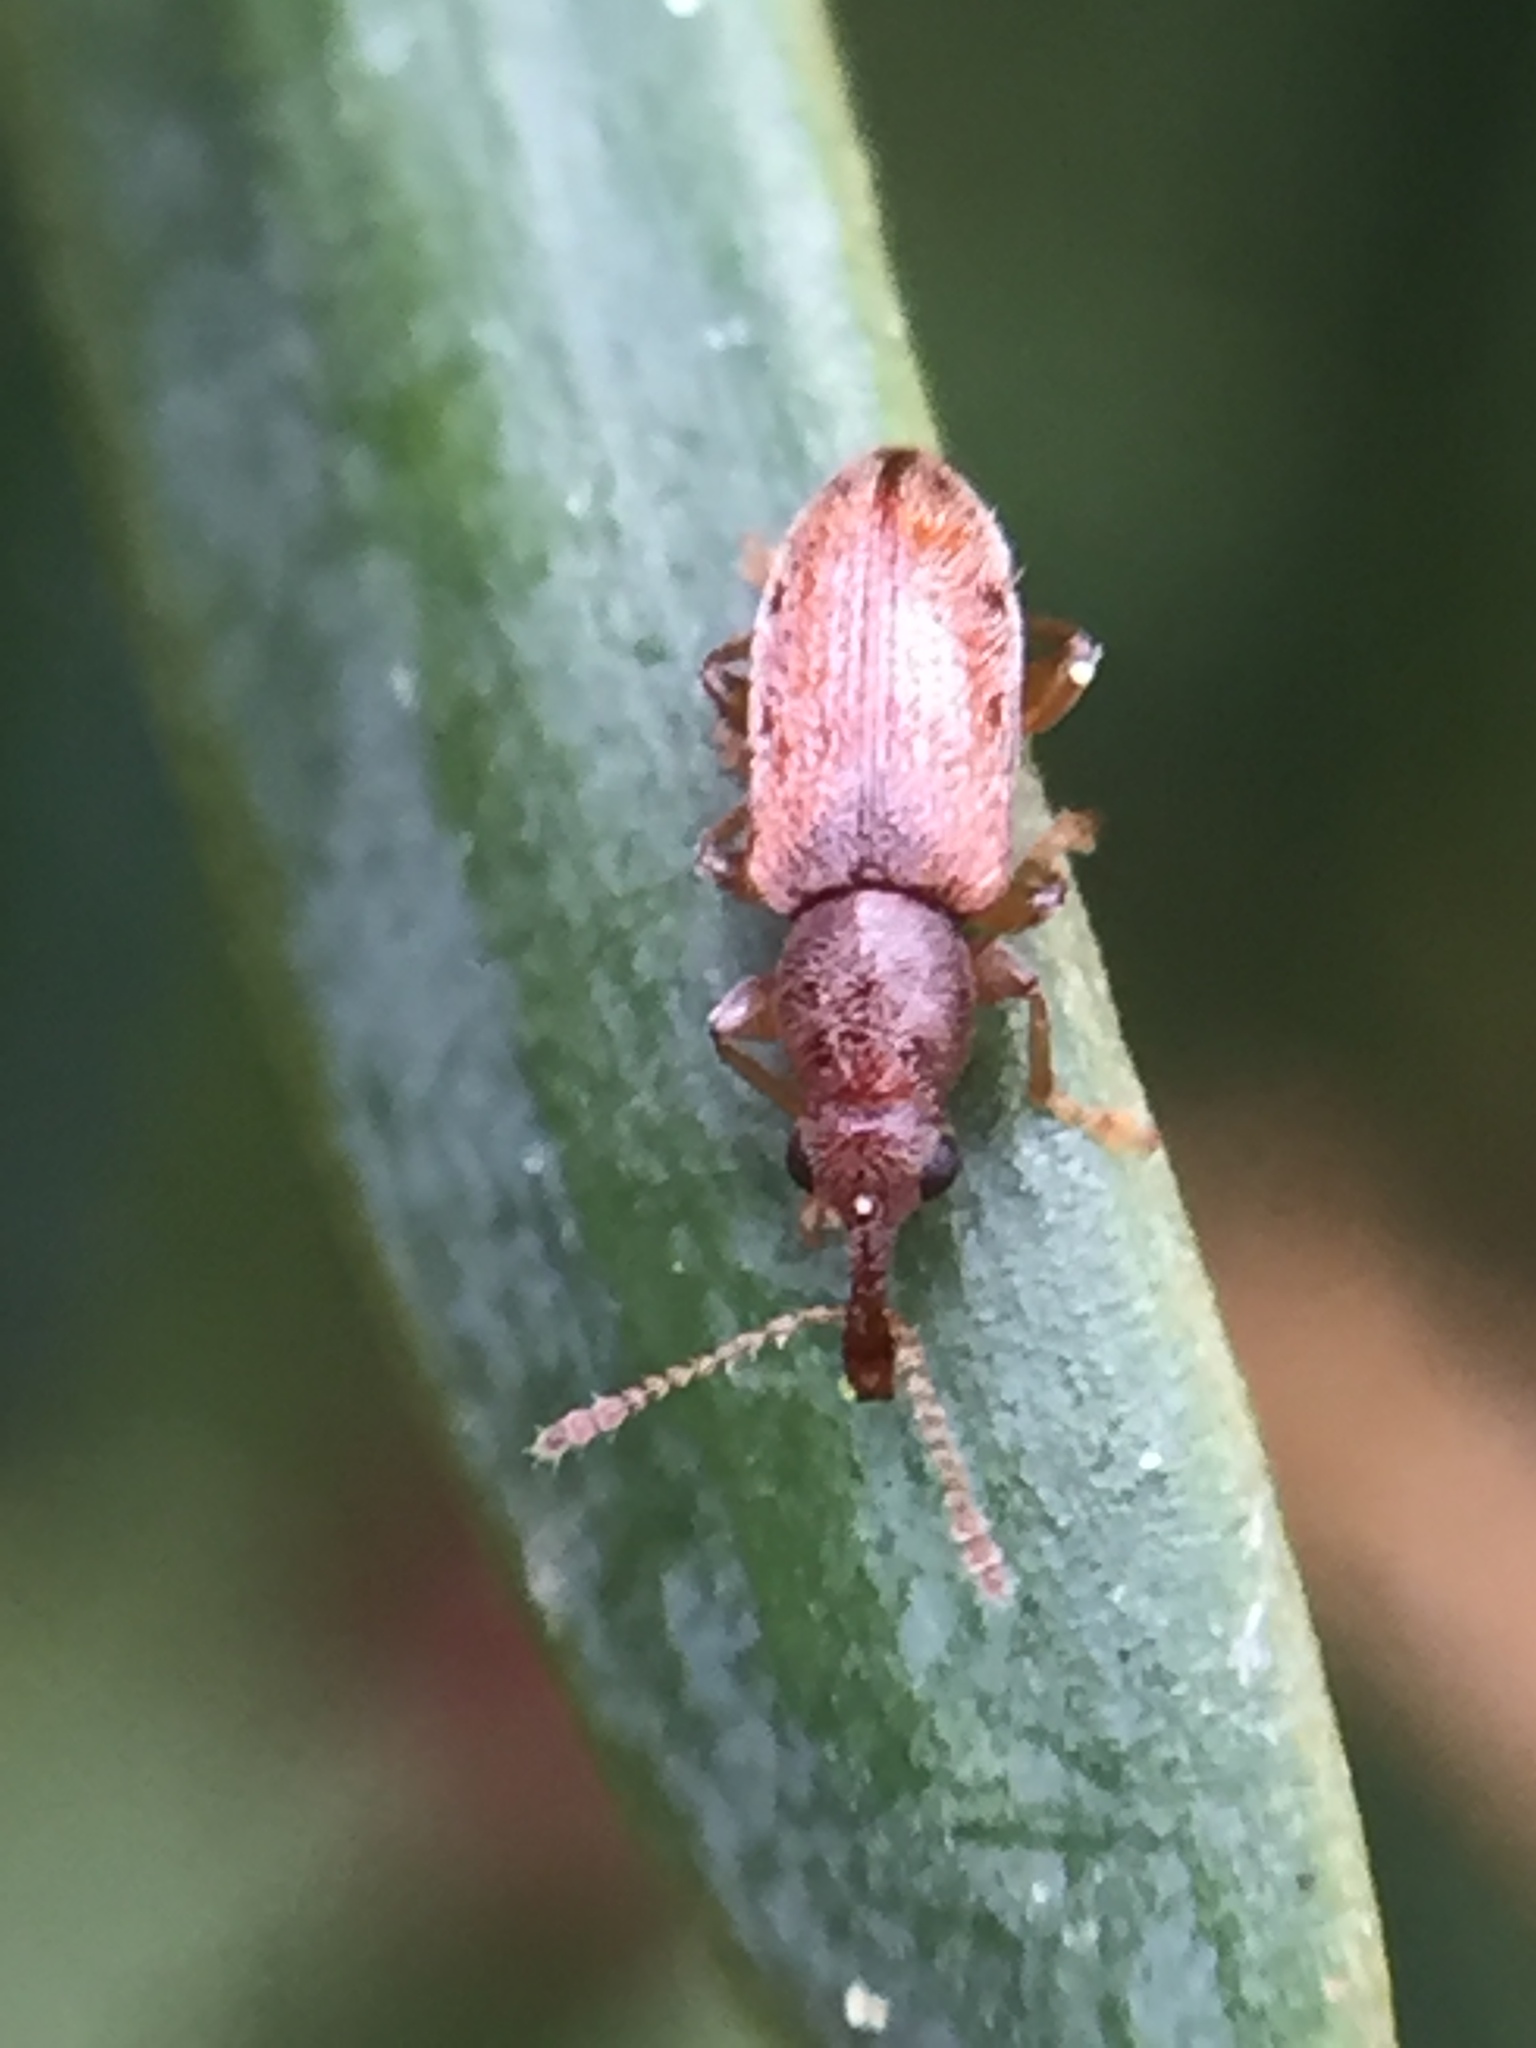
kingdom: Animalia
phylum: Arthropoda
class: Insecta
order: Coleoptera
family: Nemonychidae
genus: Rhinorhynchus
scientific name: Rhinorhynchus rufulus
